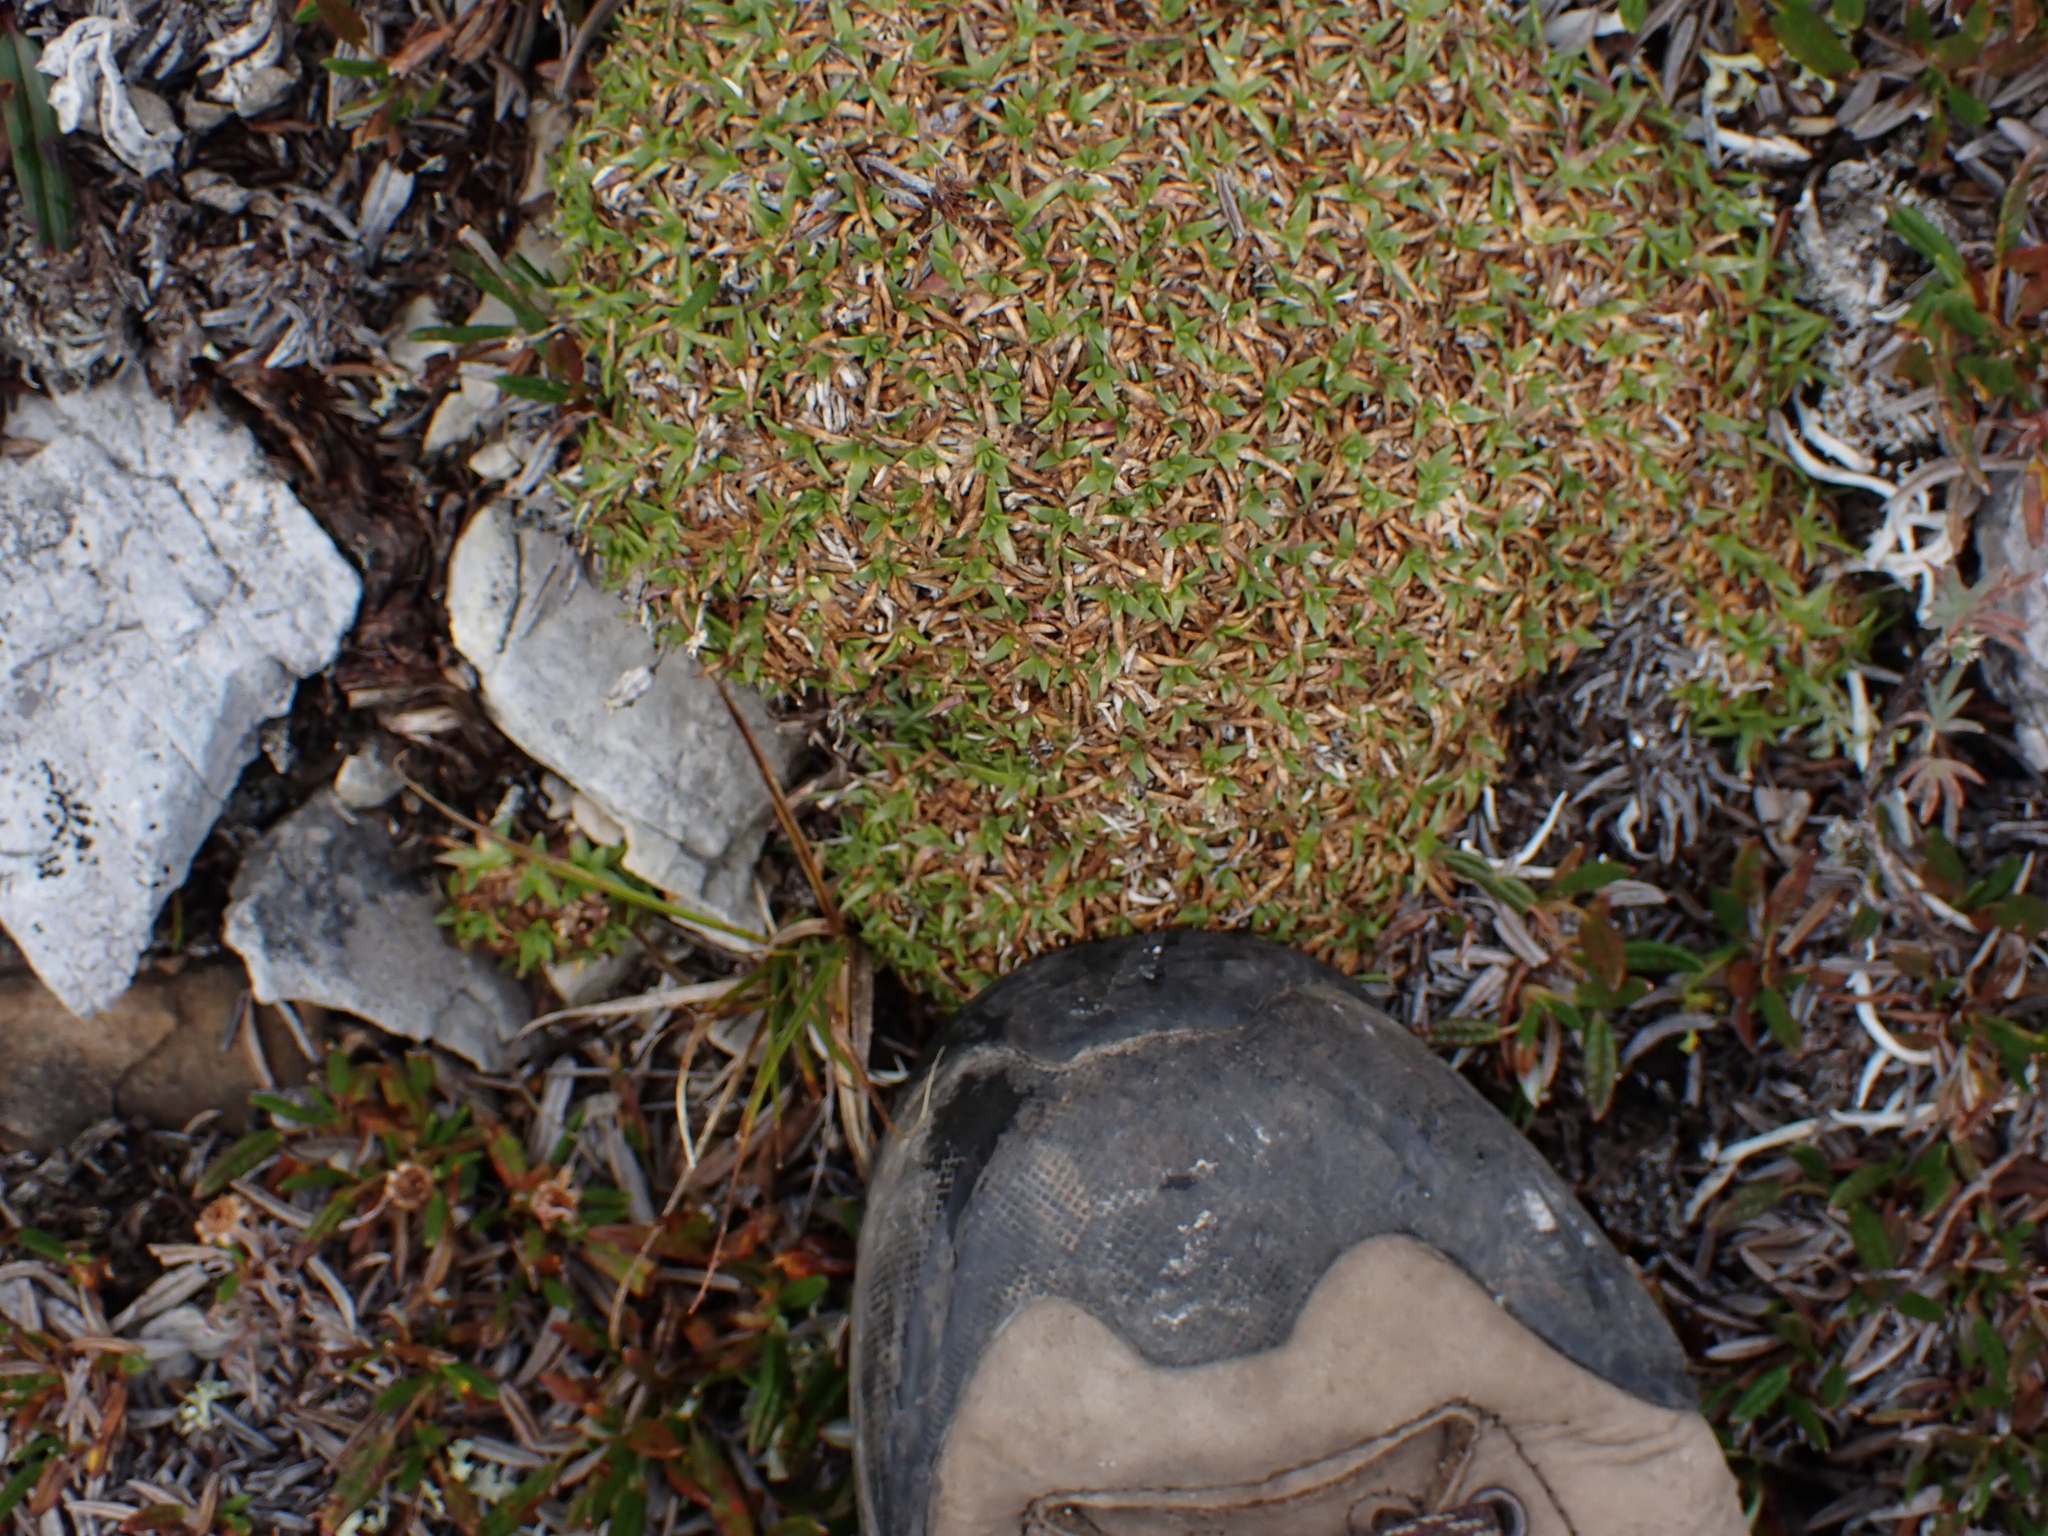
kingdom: Plantae
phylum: Tracheophyta
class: Magnoliopsida
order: Caryophyllales
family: Caryophyllaceae
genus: Silene
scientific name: Silene acaulis
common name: Moss campion
